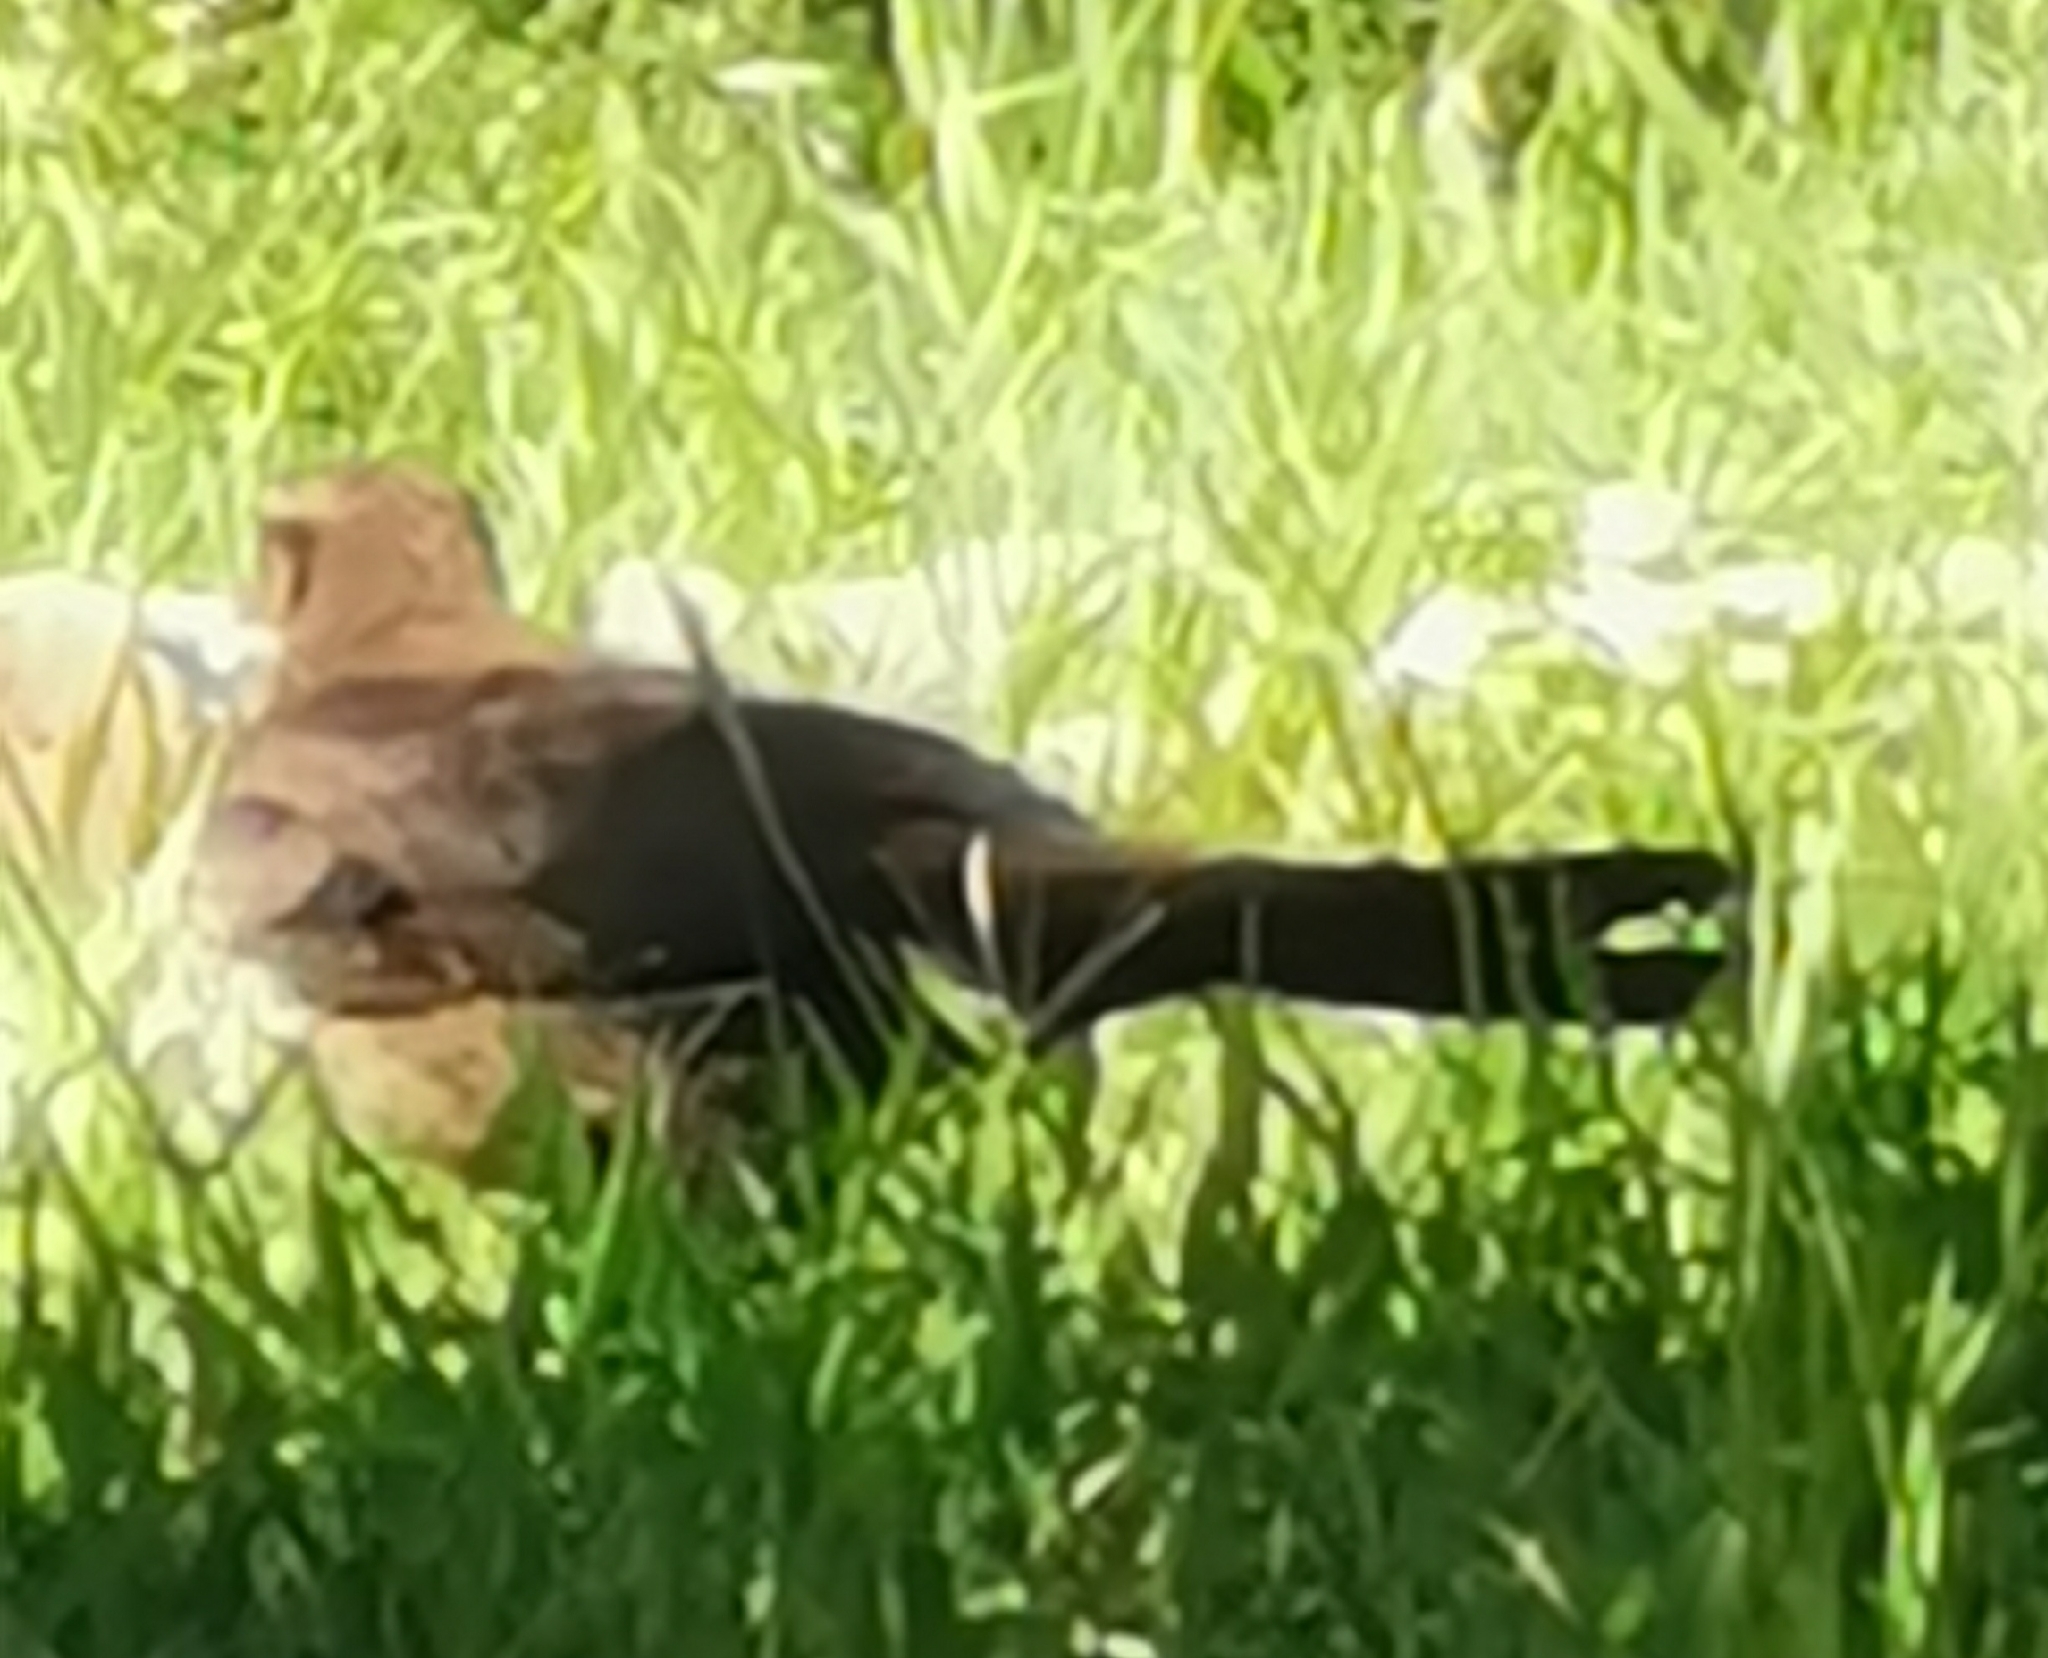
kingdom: Animalia
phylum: Chordata
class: Aves
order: Passeriformes
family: Icteridae
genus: Quiscalus
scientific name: Quiscalus mexicanus
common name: Great-tailed grackle
